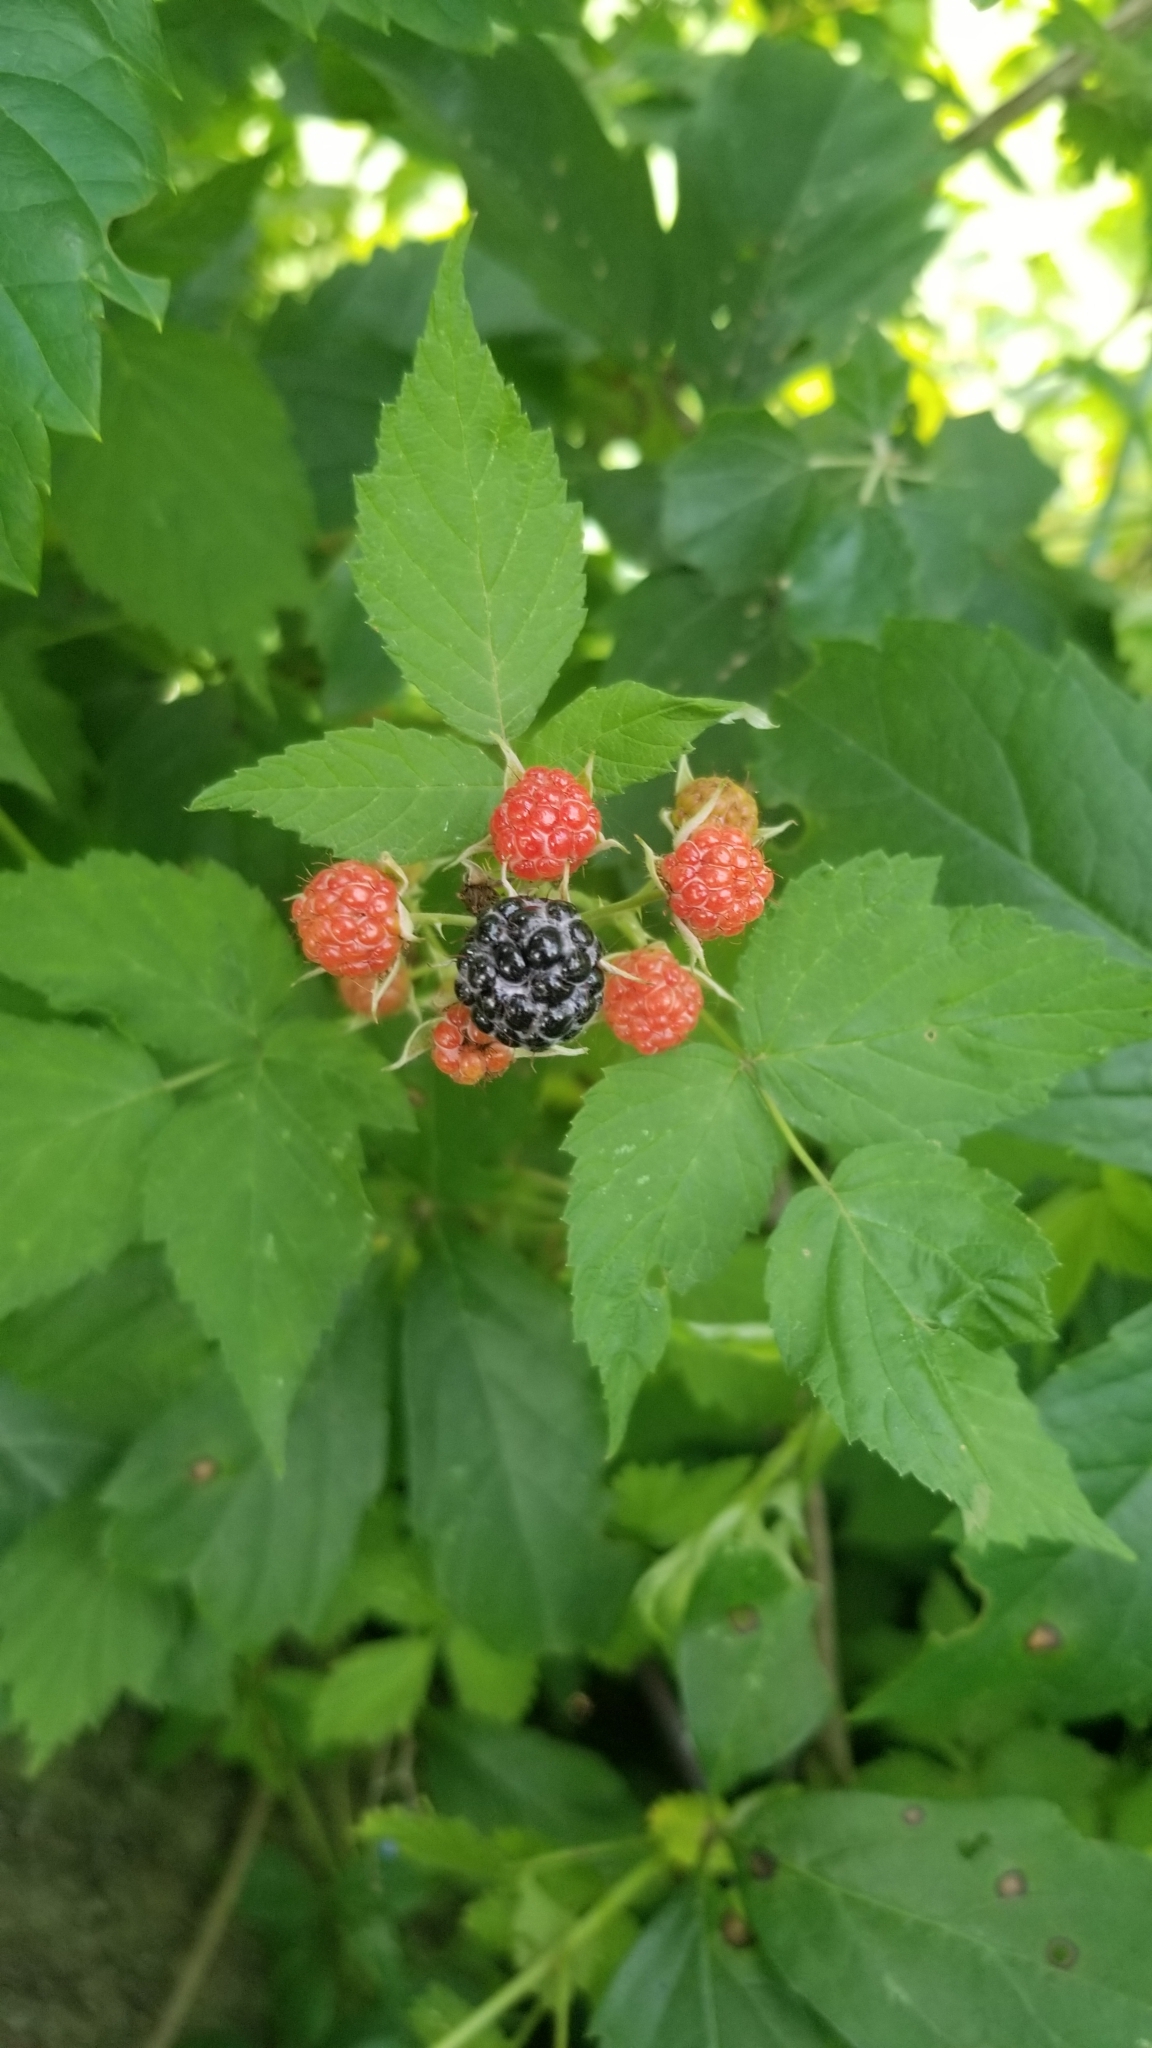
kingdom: Plantae
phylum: Tracheophyta
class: Magnoliopsida
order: Rosales
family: Rosaceae
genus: Rubus
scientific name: Rubus occidentalis
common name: Black raspberry
